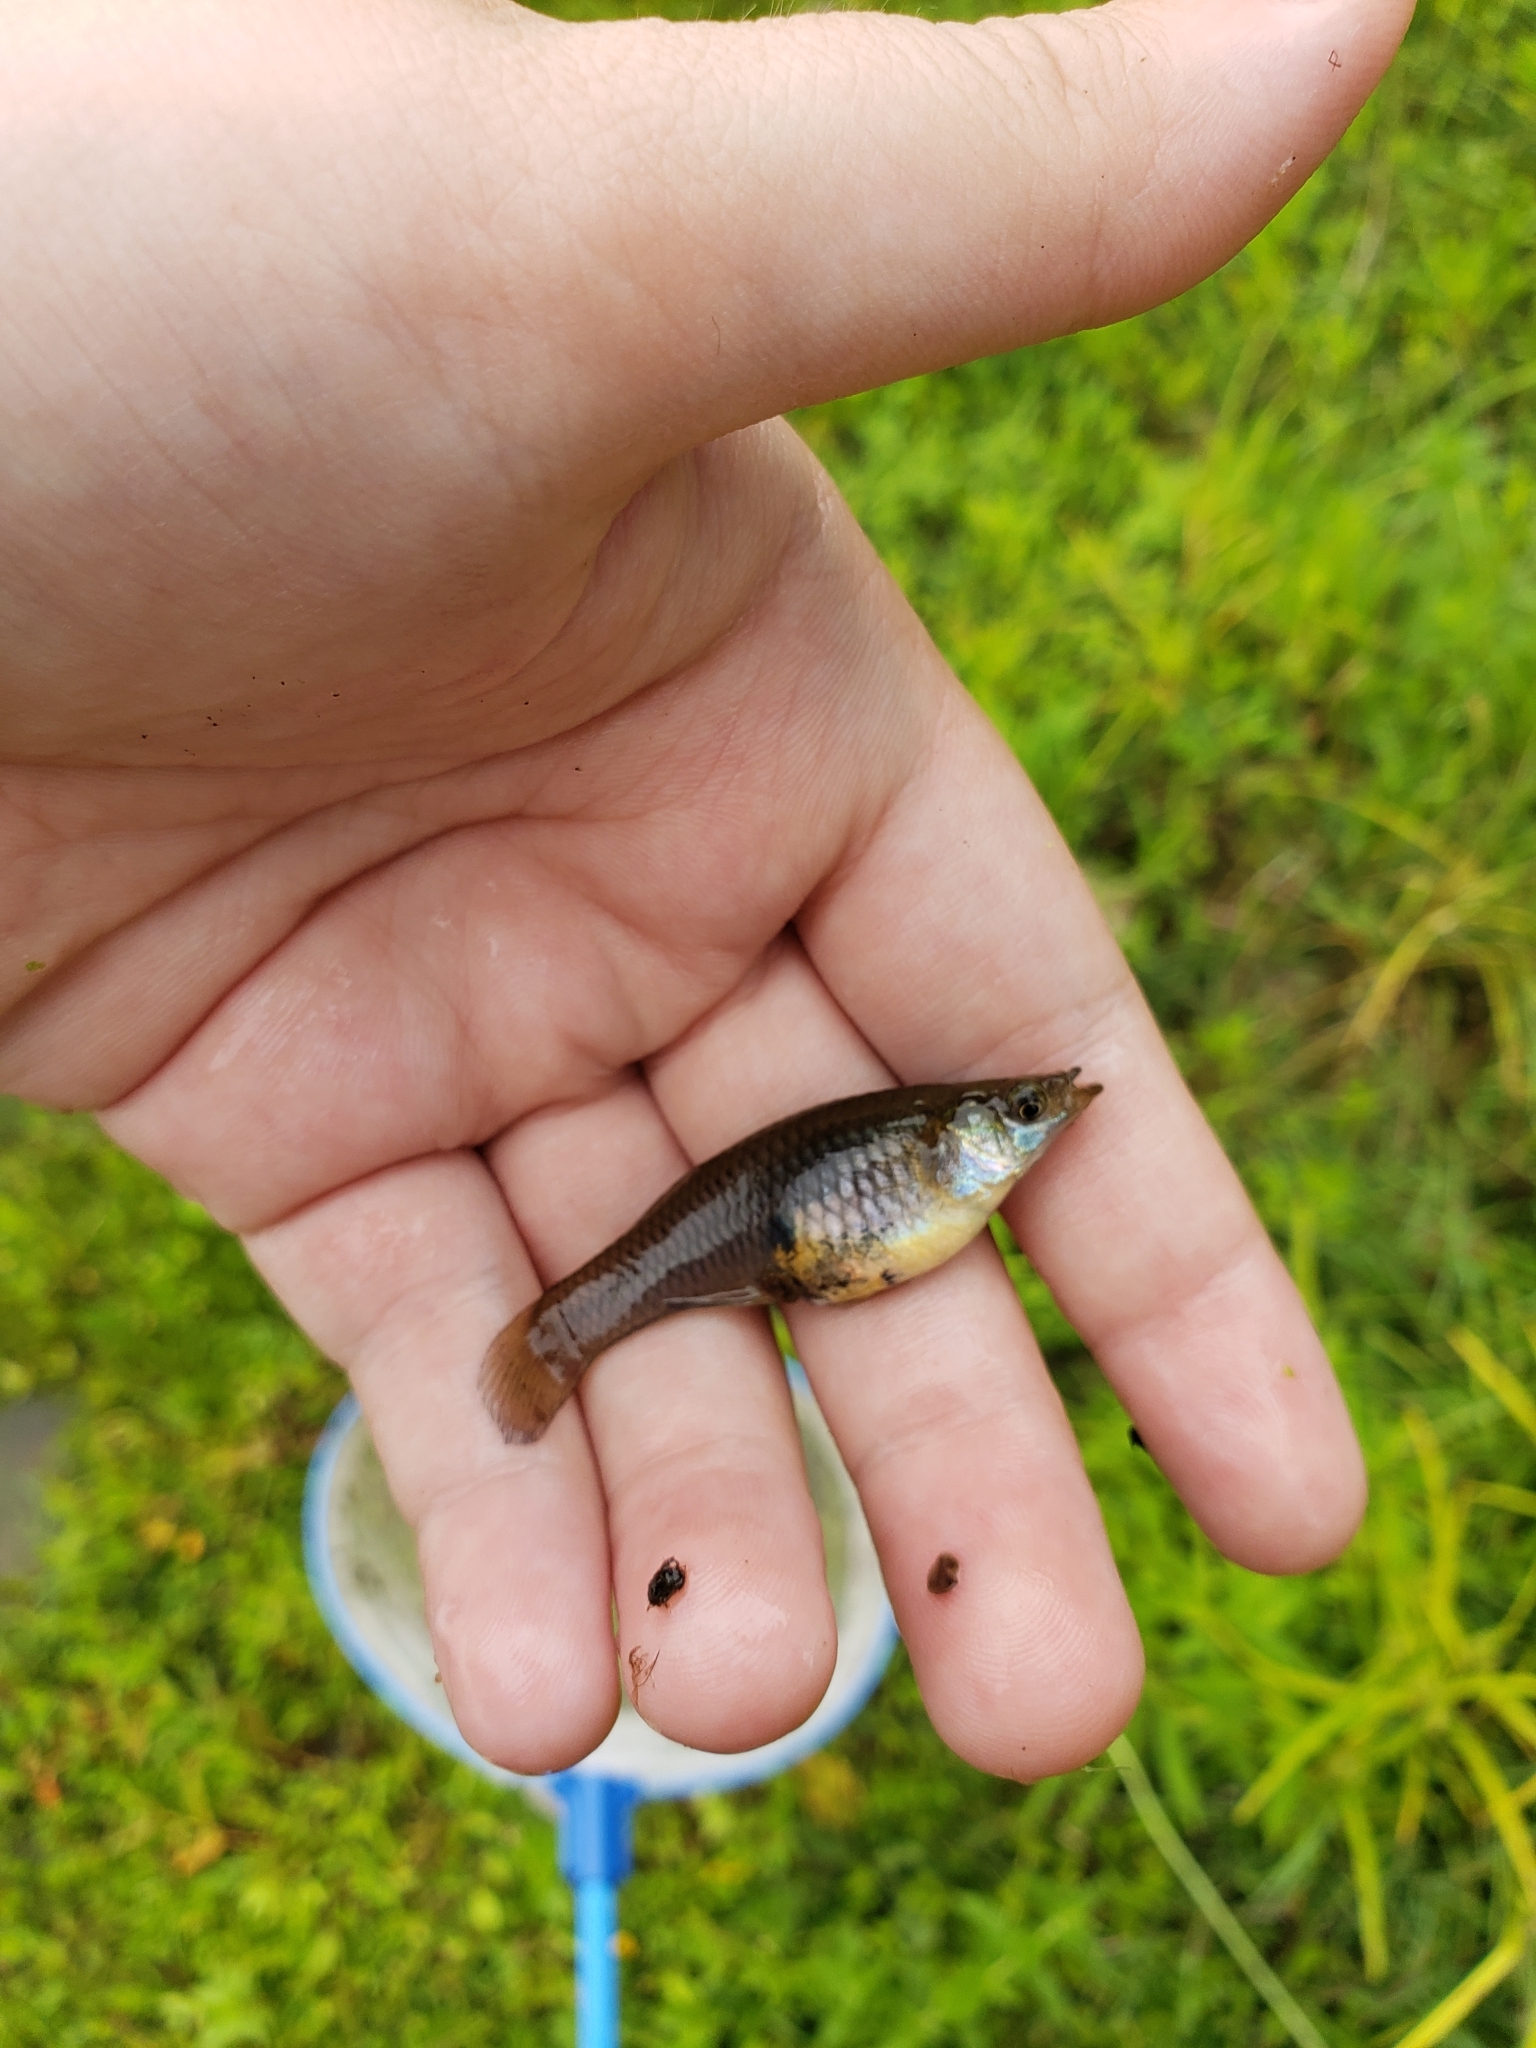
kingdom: Animalia
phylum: Chordata
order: Cyprinodontiformes
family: Poeciliidae
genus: Gambusia
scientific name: Gambusia affinis
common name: Mosquitofish
